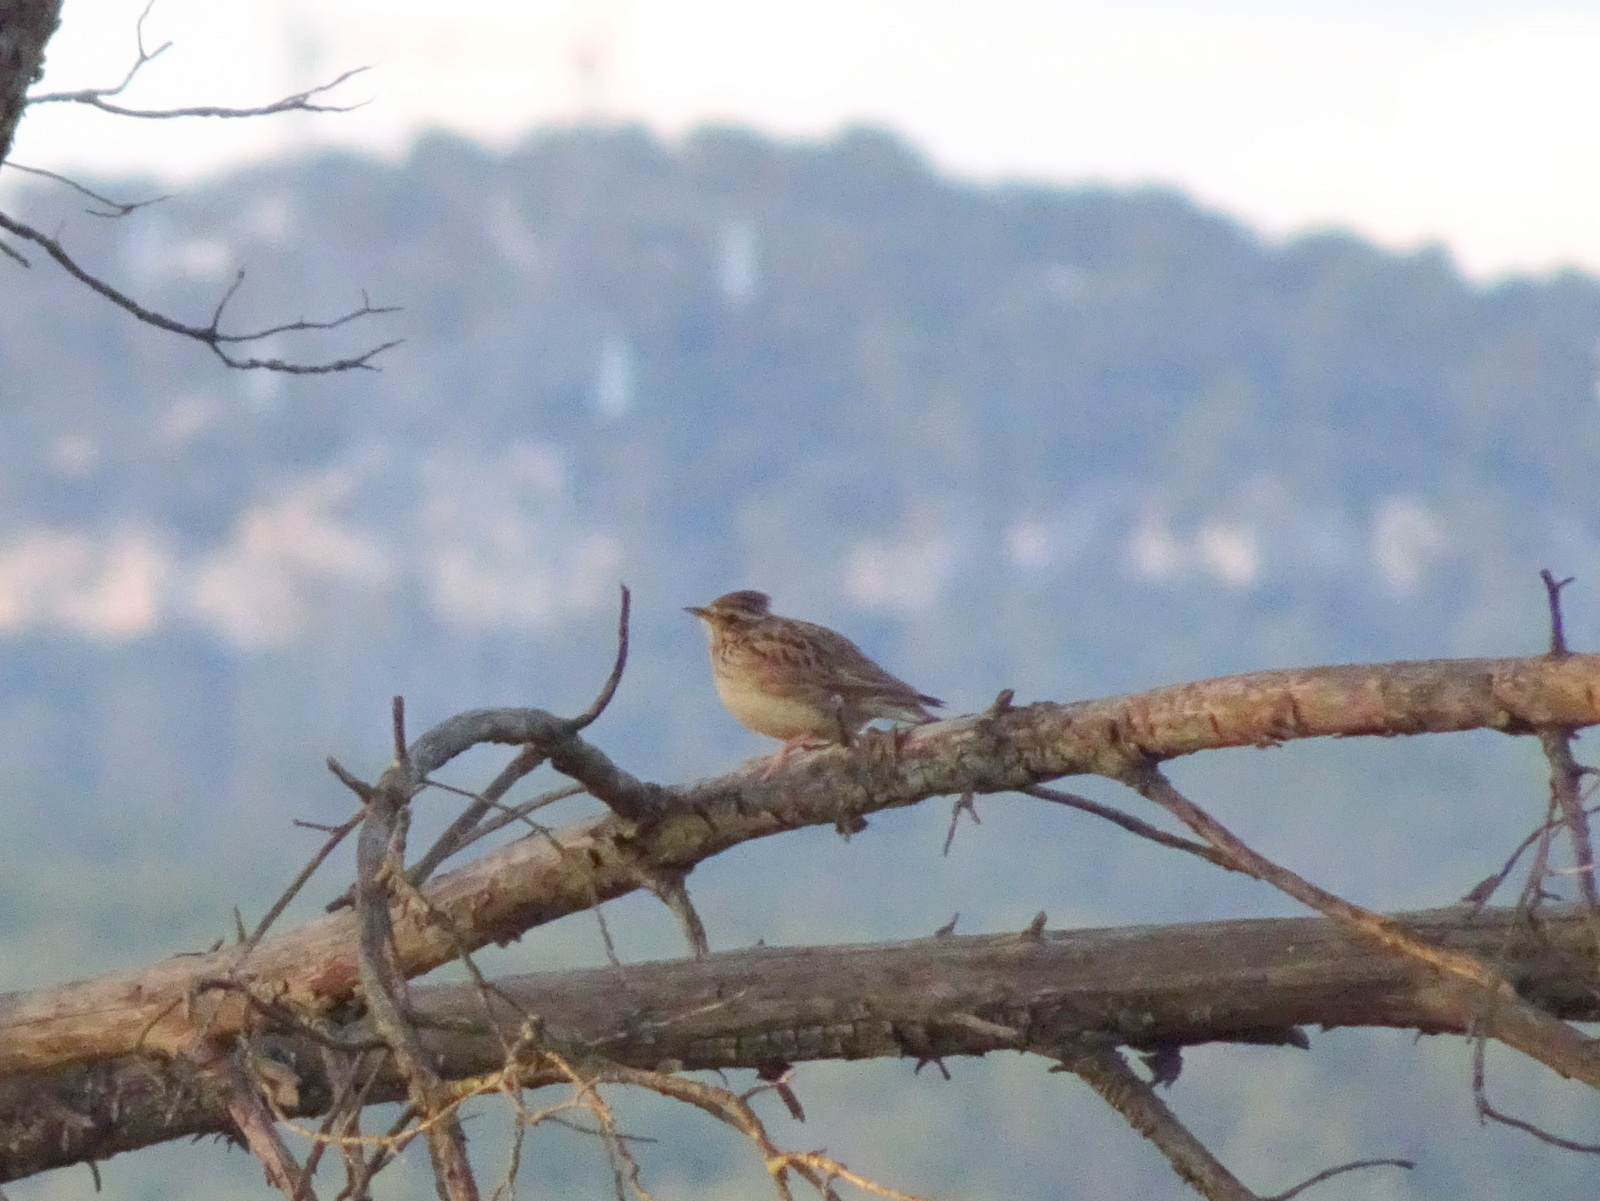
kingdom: Animalia
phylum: Chordata
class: Aves
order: Passeriformes
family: Alaudidae
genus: Lullula
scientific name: Lullula arborea
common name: Woodlark
